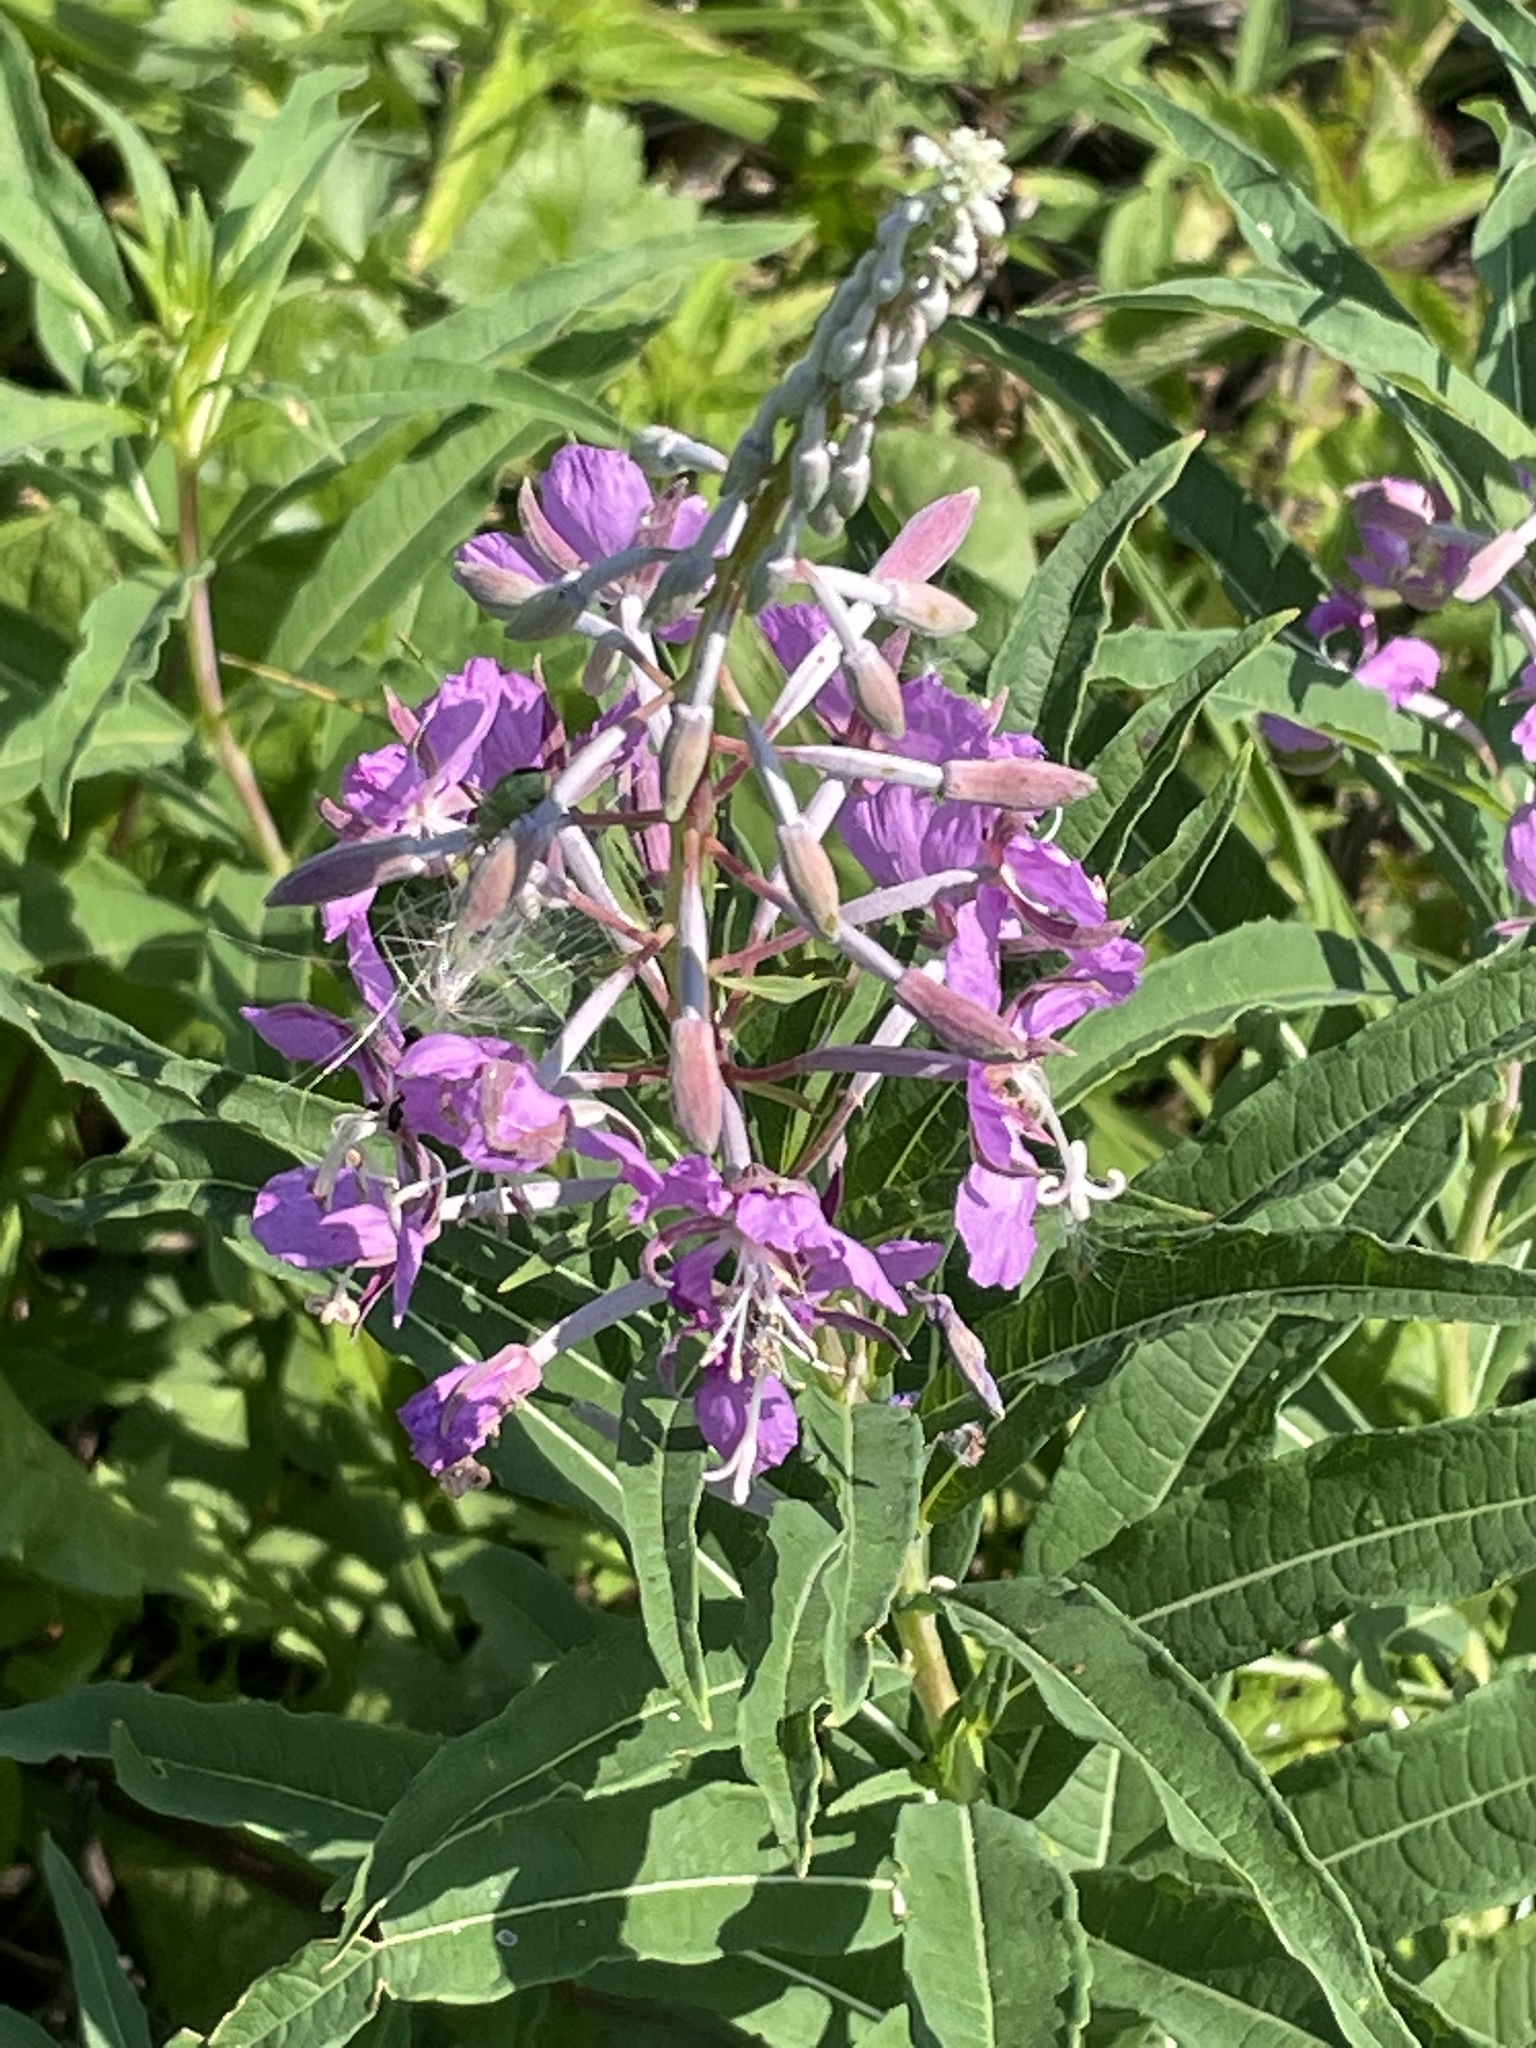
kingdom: Plantae
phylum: Tracheophyta
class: Magnoliopsida
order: Myrtales
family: Onagraceae
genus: Chamaenerion
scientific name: Chamaenerion angustifolium
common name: Fireweed
